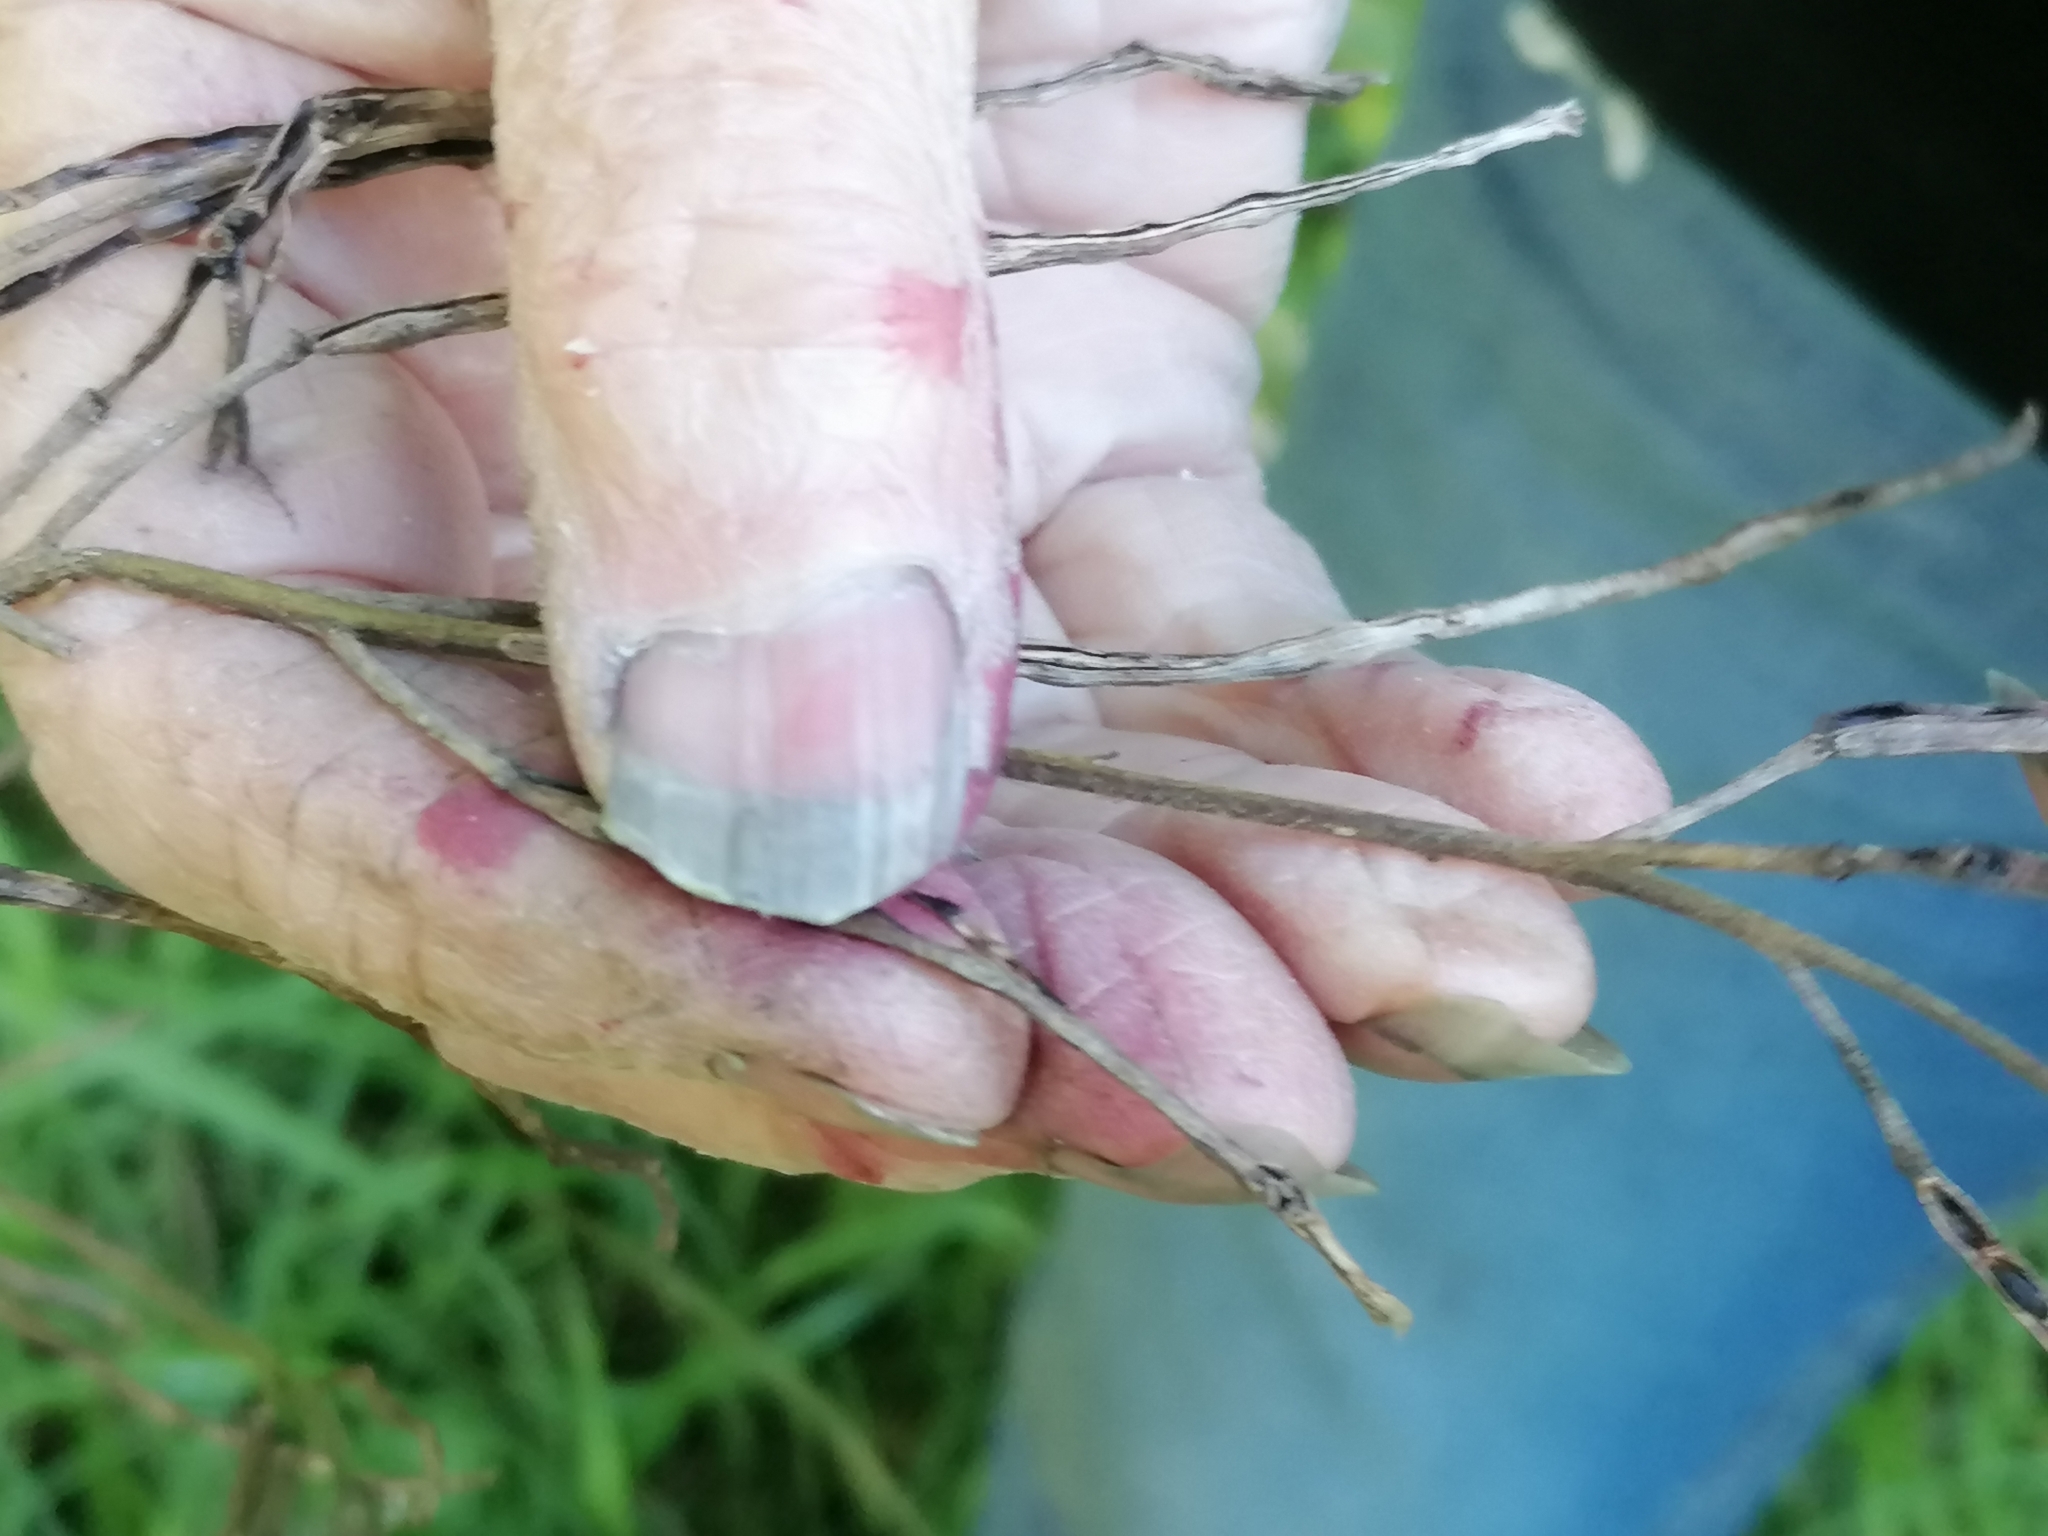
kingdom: Plantae
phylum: Tracheophyta
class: Magnoliopsida
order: Brassicales
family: Brassicaceae
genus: Hesperis
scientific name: Hesperis matronalis
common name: Dame's-violet
